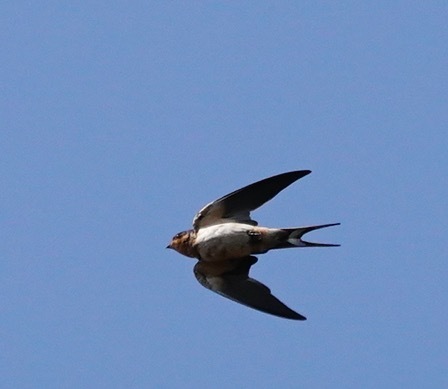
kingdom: Animalia
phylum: Chordata
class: Aves
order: Passeriformes
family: Hirundinidae
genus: Hirundo
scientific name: Hirundo rustica
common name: Barn swallow
